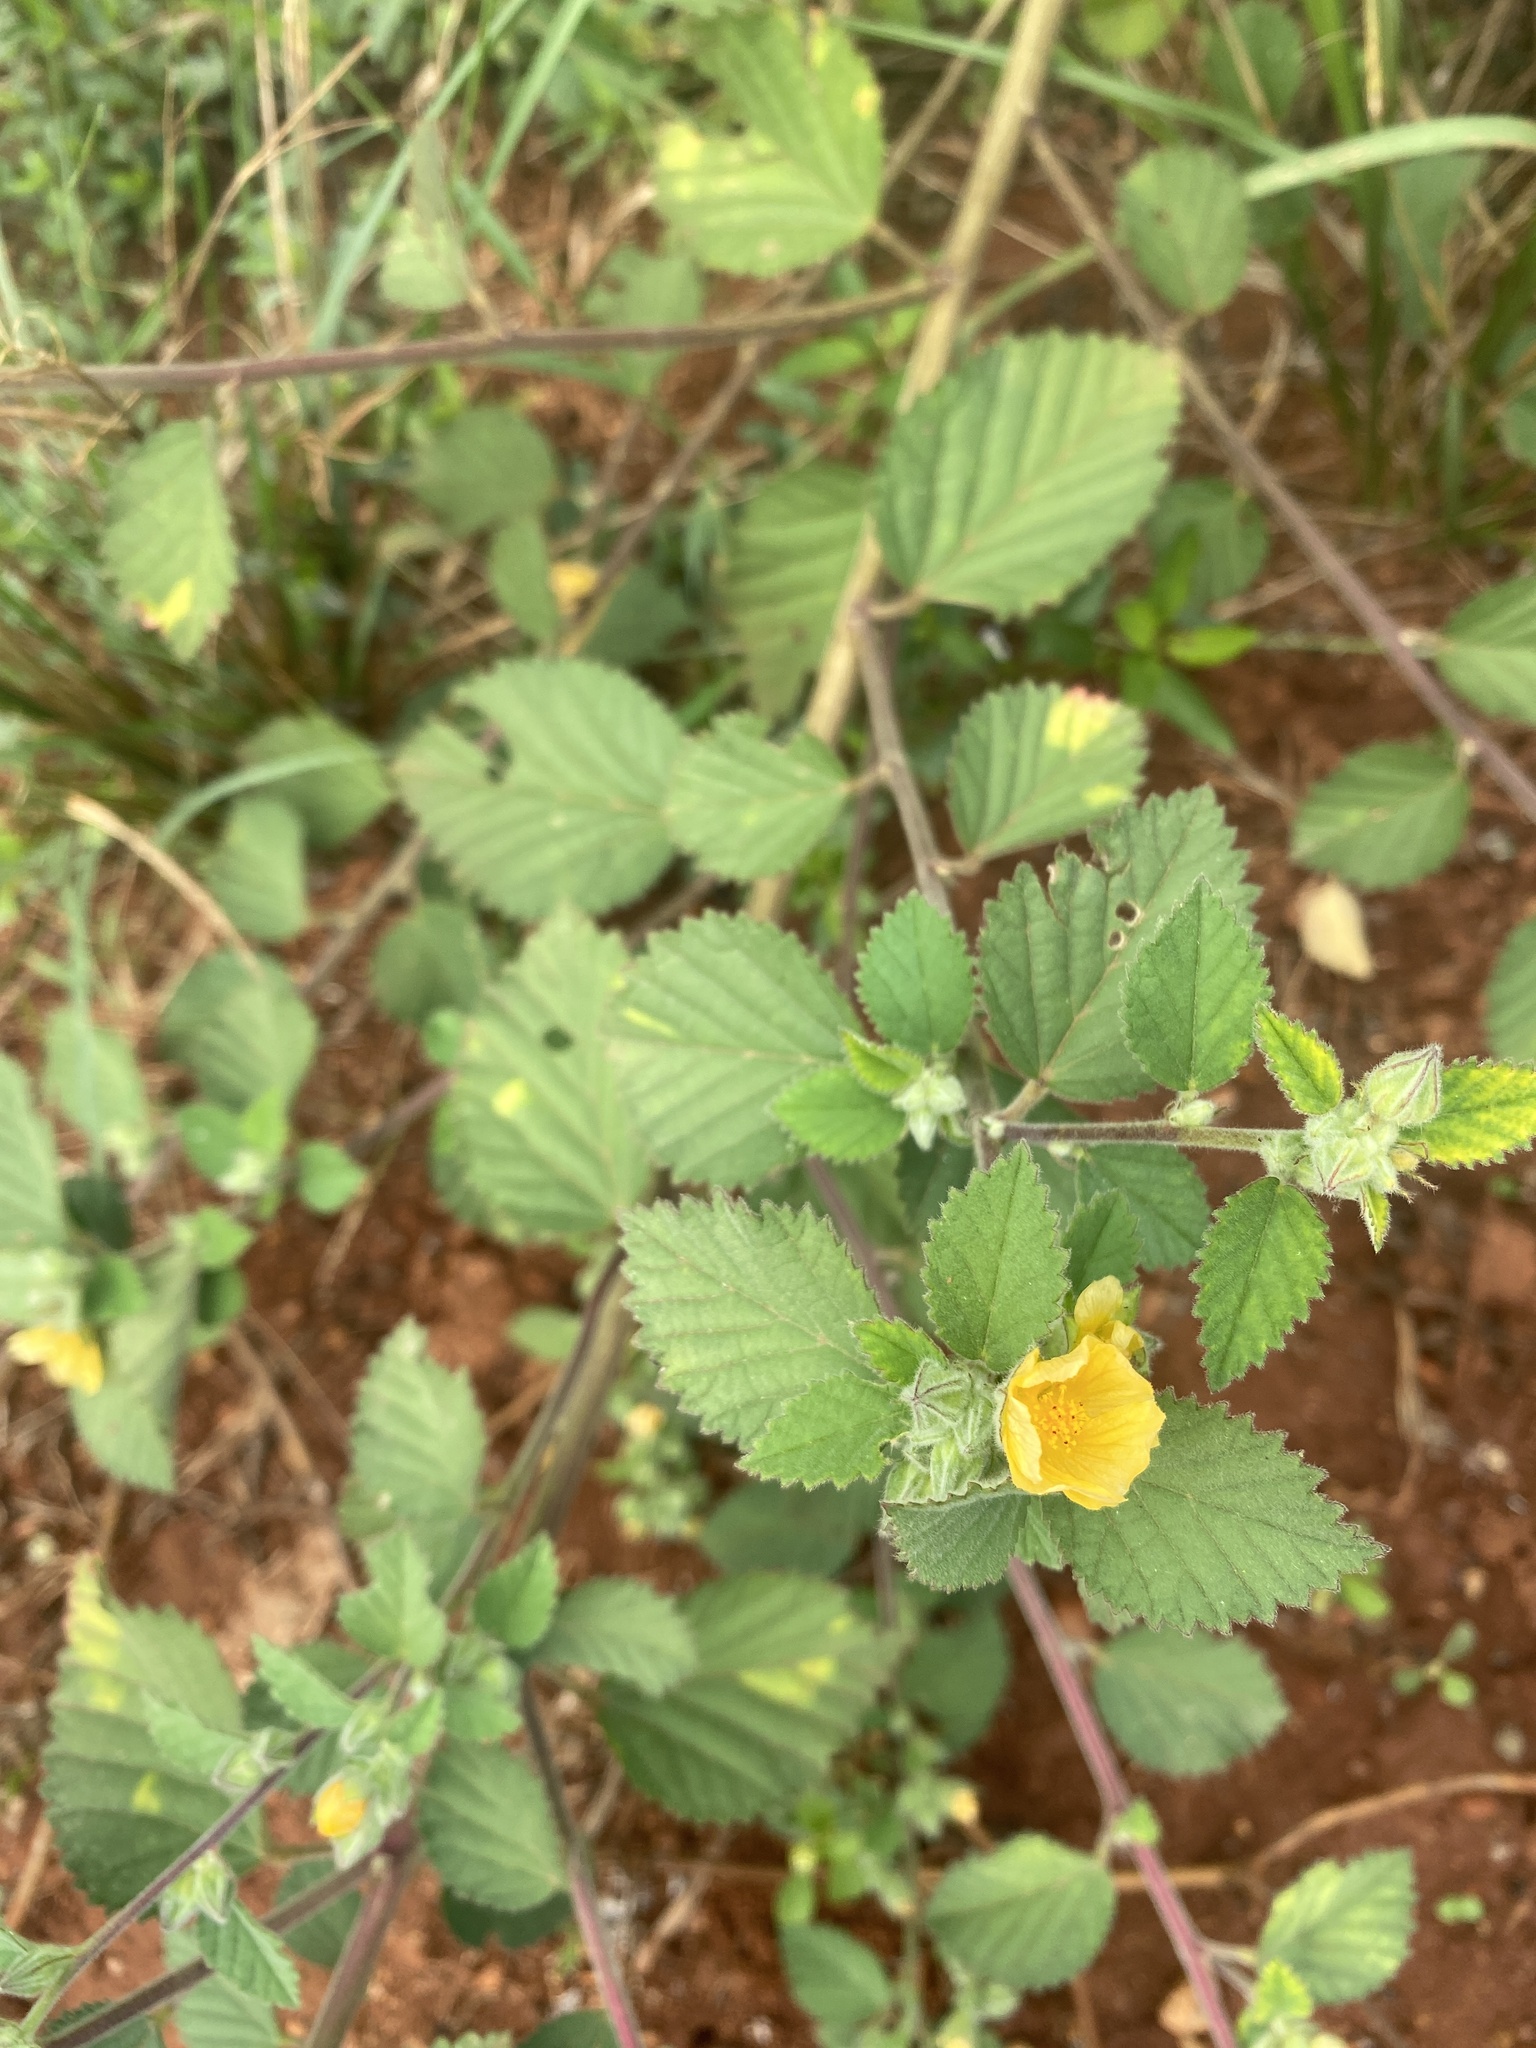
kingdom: Plantae
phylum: Tracheophyta
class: Magnoliopsida
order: Malvales
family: Malvaceae
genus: Sida
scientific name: Sida cordifolia
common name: Ilima
